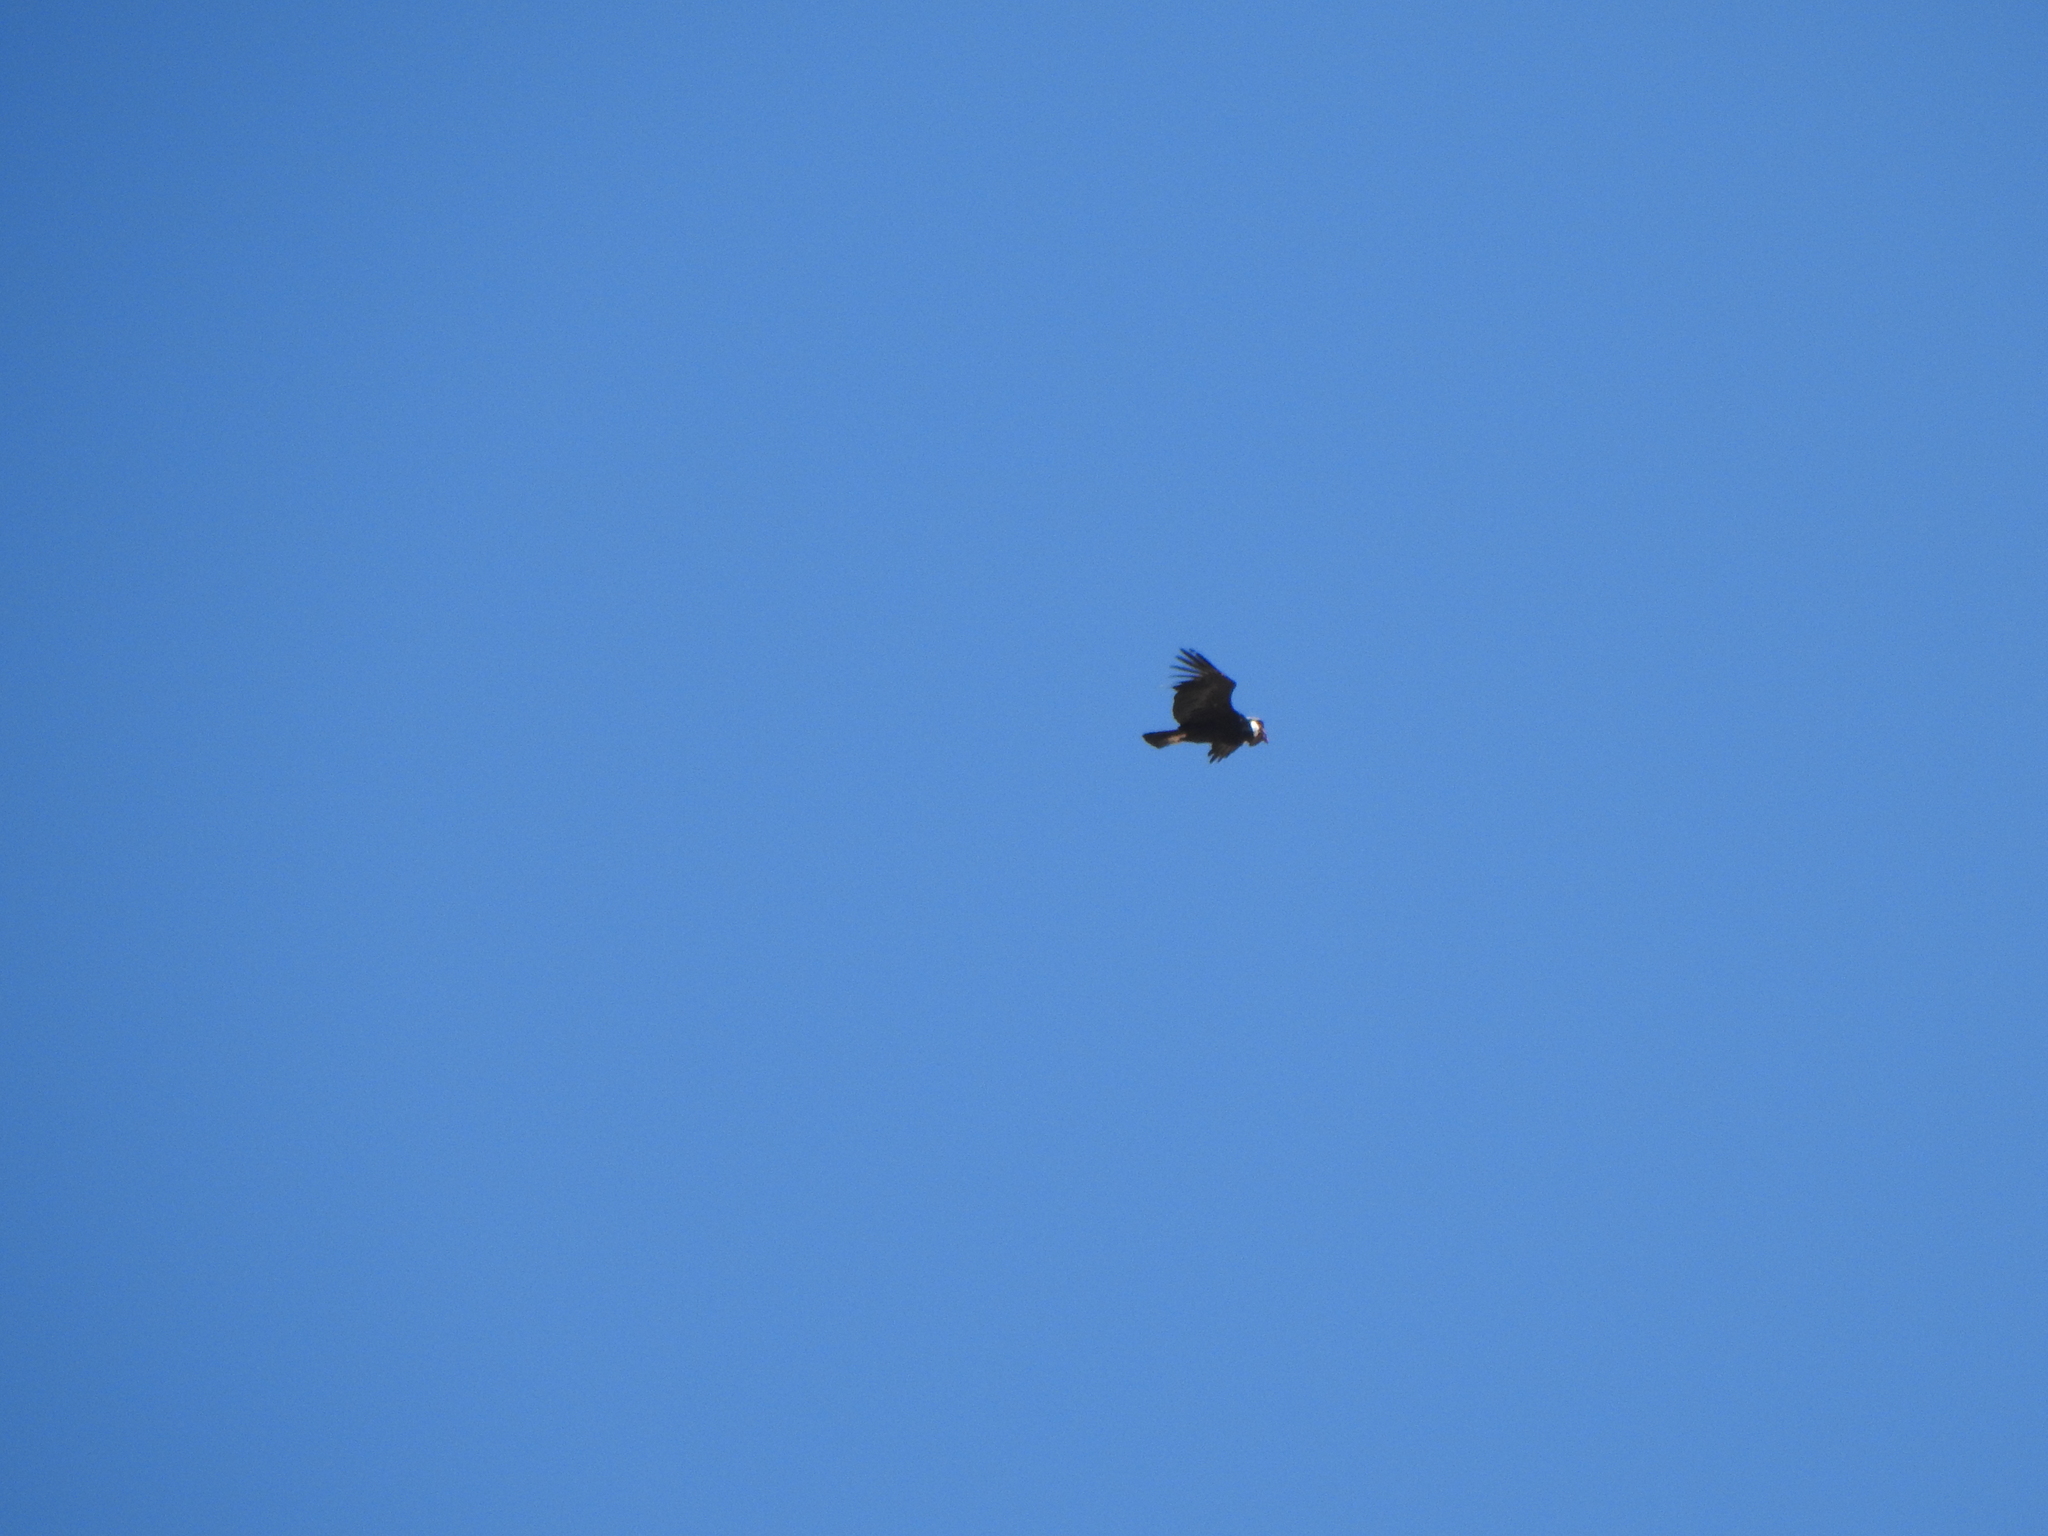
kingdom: Animalia
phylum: Chordata
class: Aves
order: Accipitriformes
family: Cathartidae
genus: Vultur
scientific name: Vultur gryphus
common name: Andean condor
